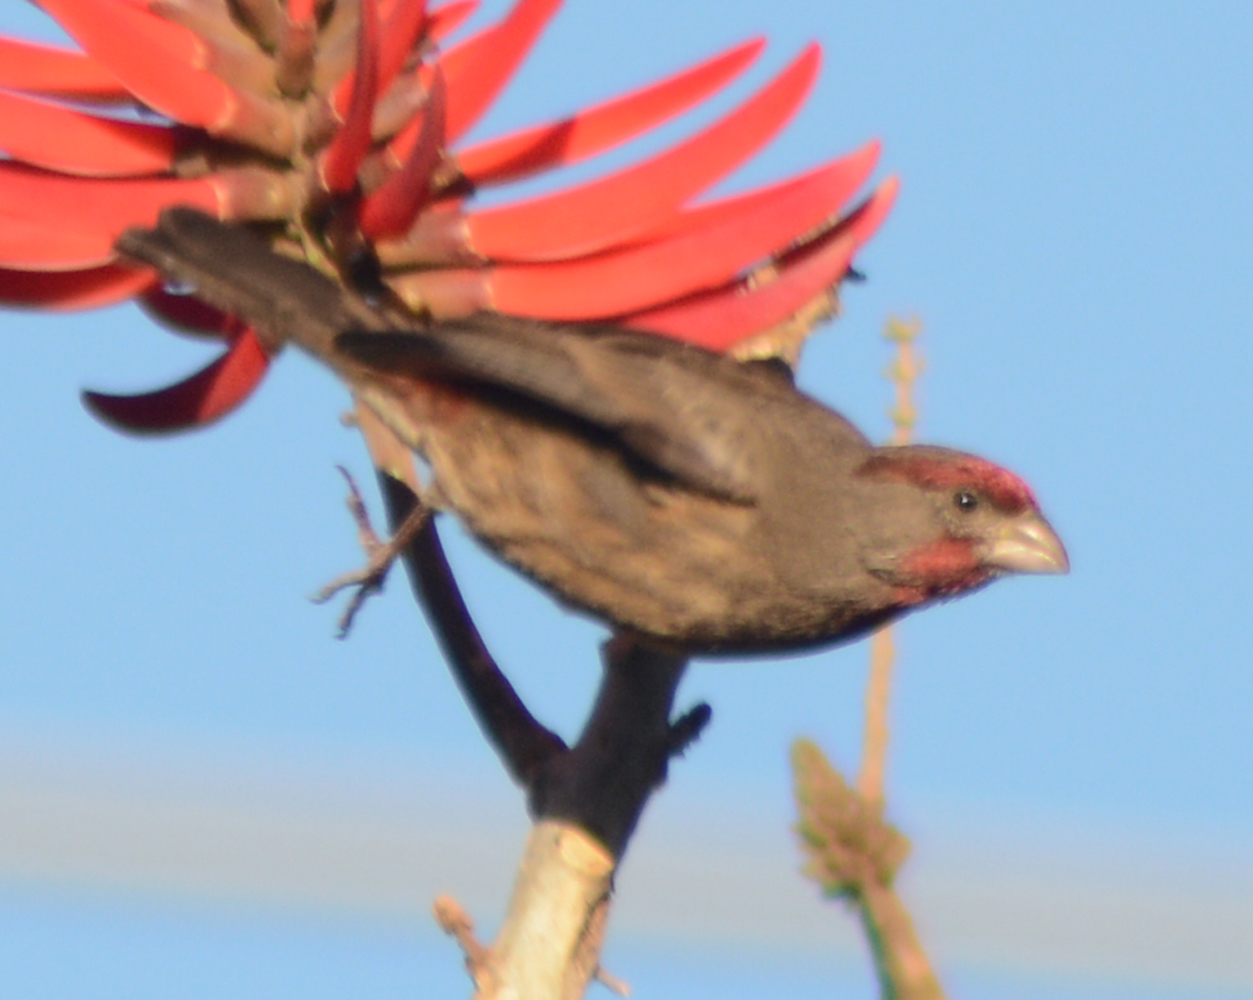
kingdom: Animalia
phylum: Chordata
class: Aves
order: Passeriformes
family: Fringillidae
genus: Haemorhous
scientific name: Haemorhous mexicanus
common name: House finch
